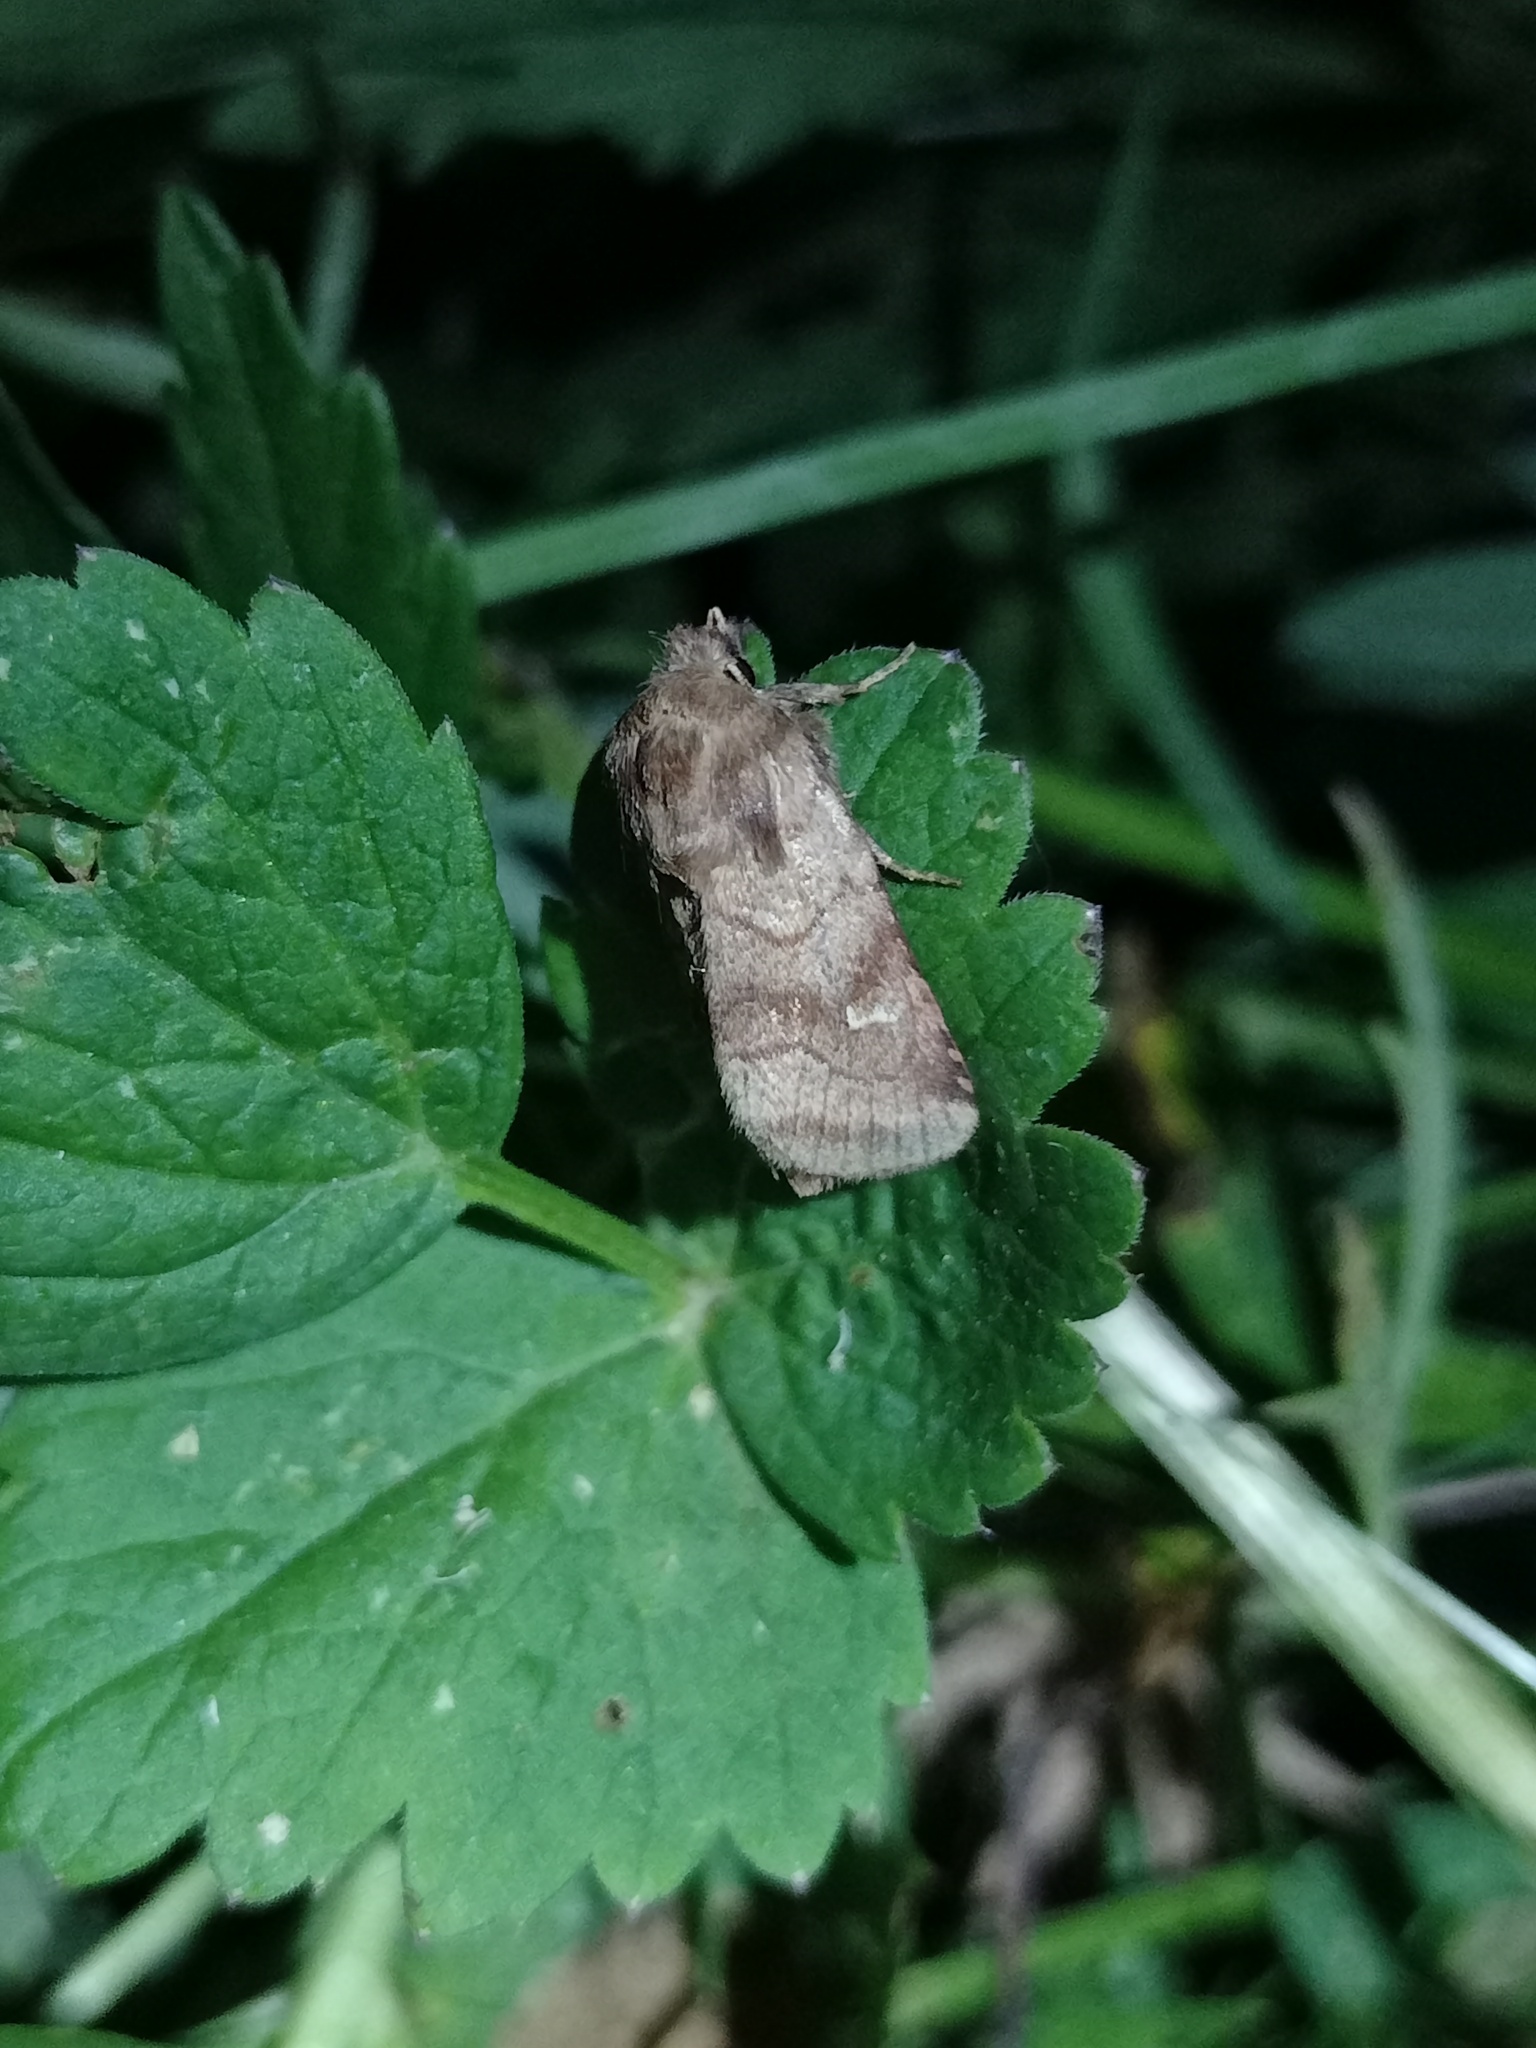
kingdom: Animalia
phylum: Arthropoda
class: Insecta
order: Lepidoptera
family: Noctuidae
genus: Lasionycta
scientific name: Lasionycta Eriopygodes imbecillus
